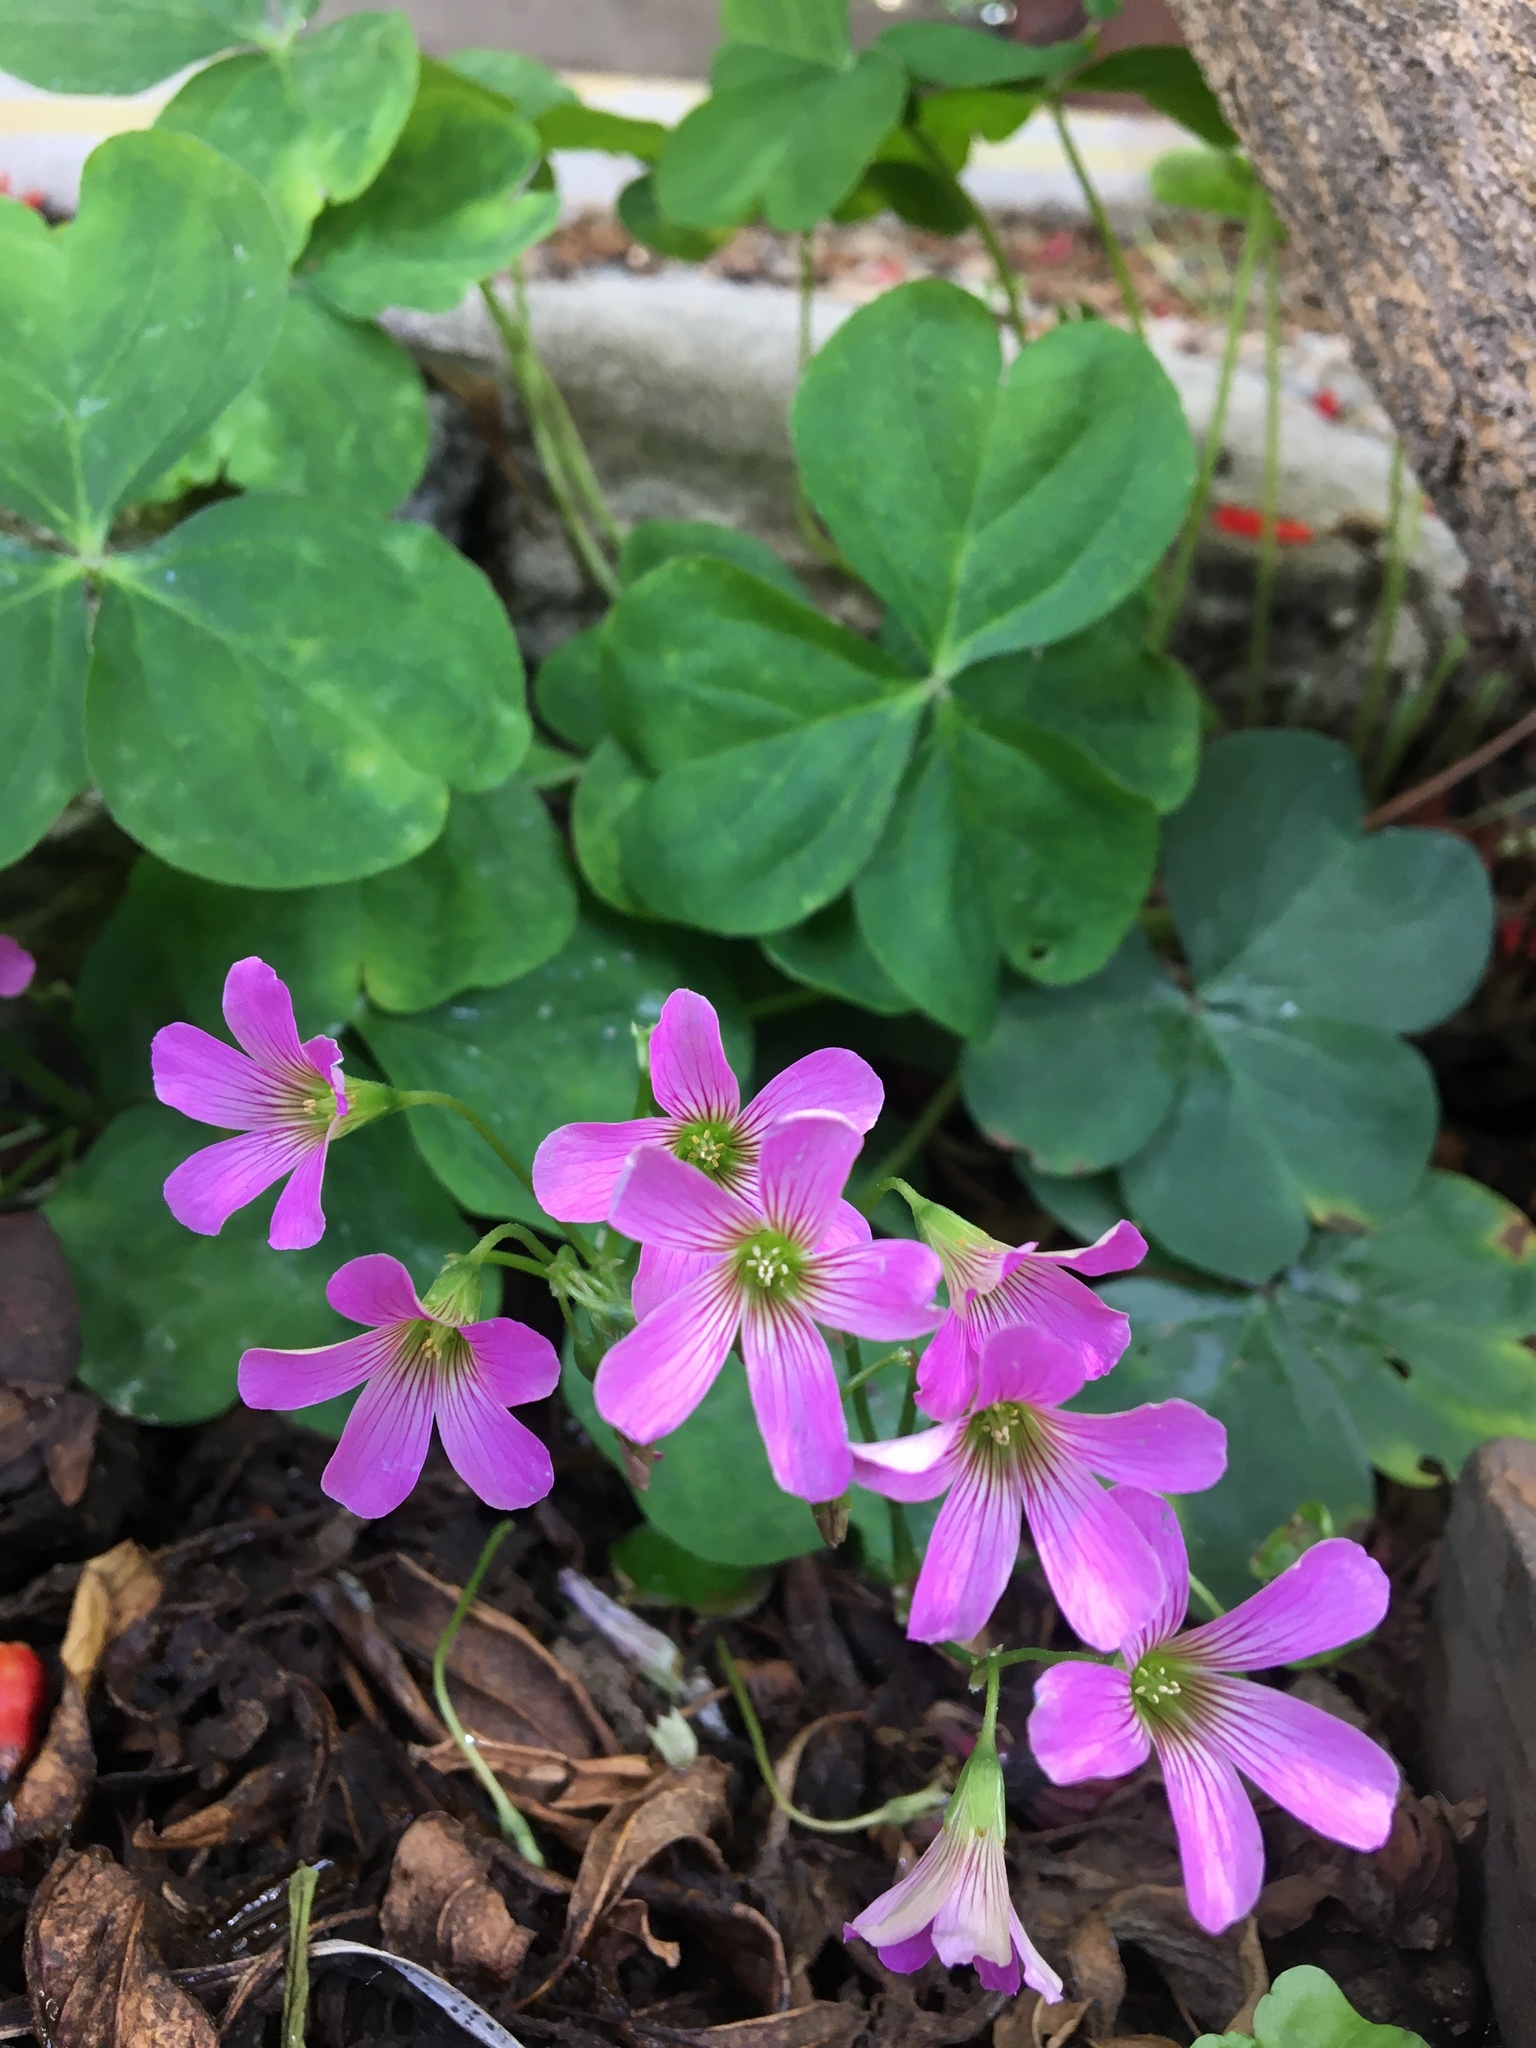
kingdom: Plantae
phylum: Tracheophyta
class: Magnoliopsida
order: Oxalidales
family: Oxalidaceae
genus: Oxalis
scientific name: Oxalis debilis
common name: Large-flowered pink-sorrel
